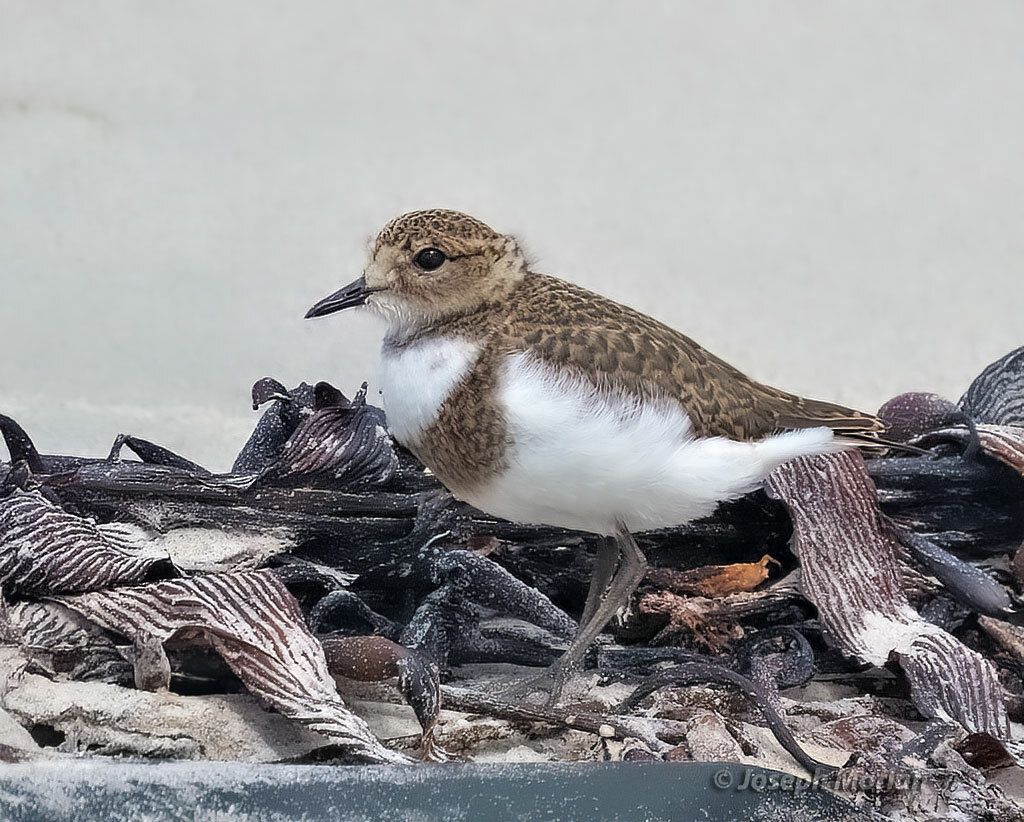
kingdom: Animalia
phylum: Chordata
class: Aves
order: Charadriiformes
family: Charadriidae
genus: Anarhynchus
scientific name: Anarhynchus
